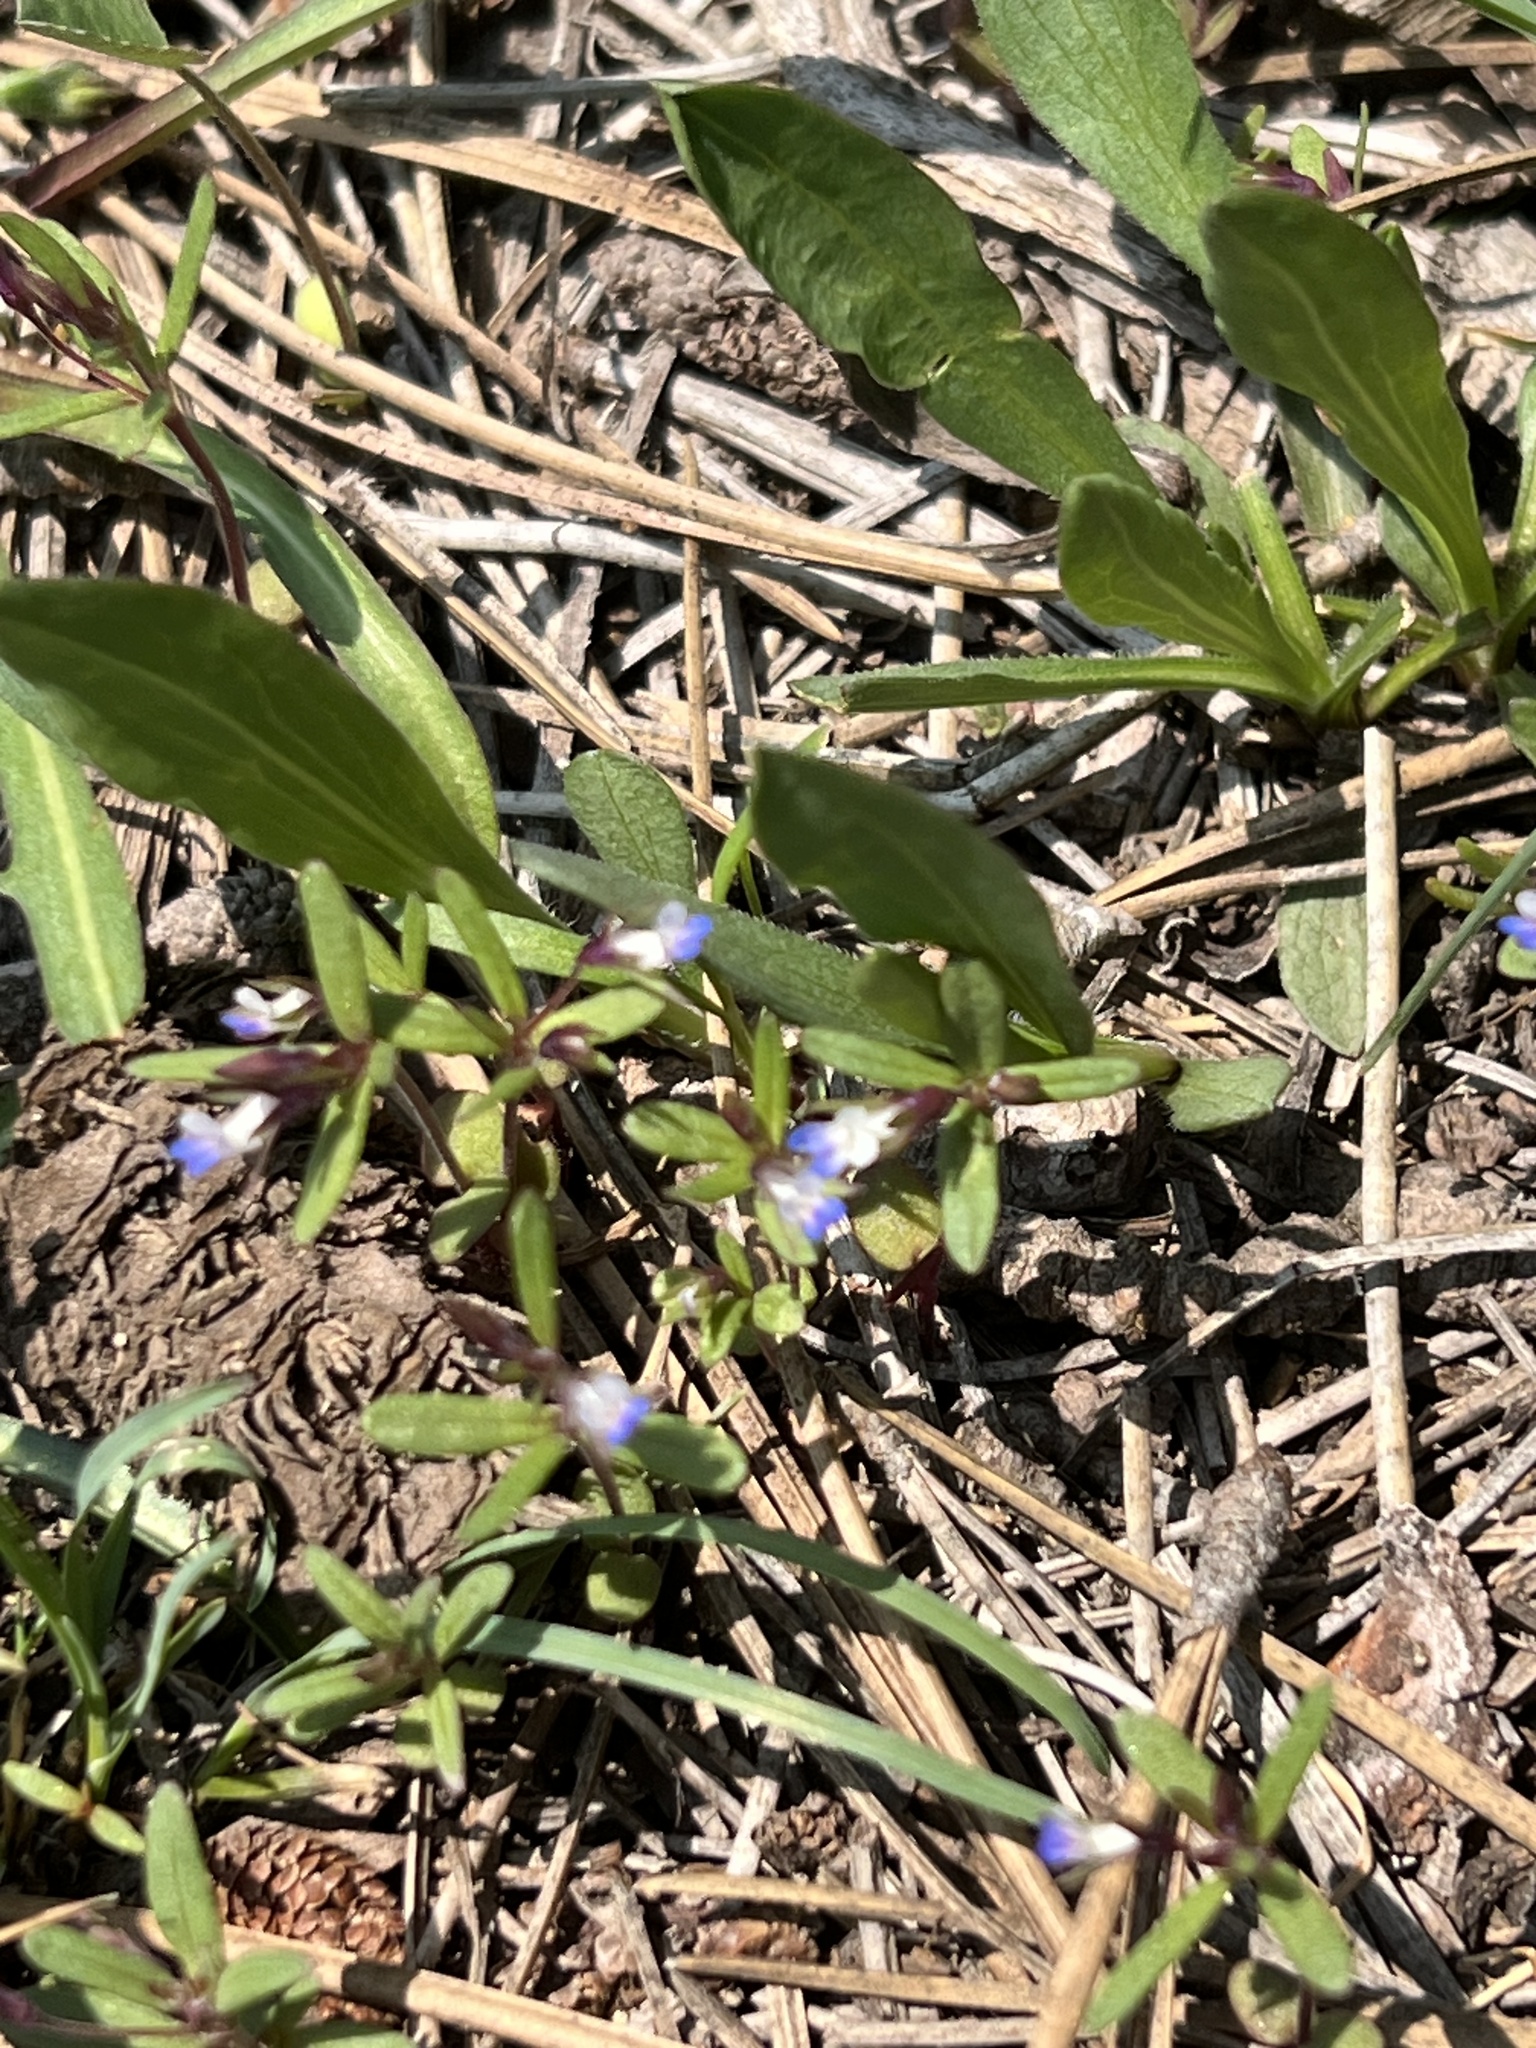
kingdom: Plantae
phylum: Tracheophyta
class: Magnoliopsida
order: Lamiales
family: Plantaginaceae
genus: Collinsia
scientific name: Collinsia parviflora
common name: Blue-lips
